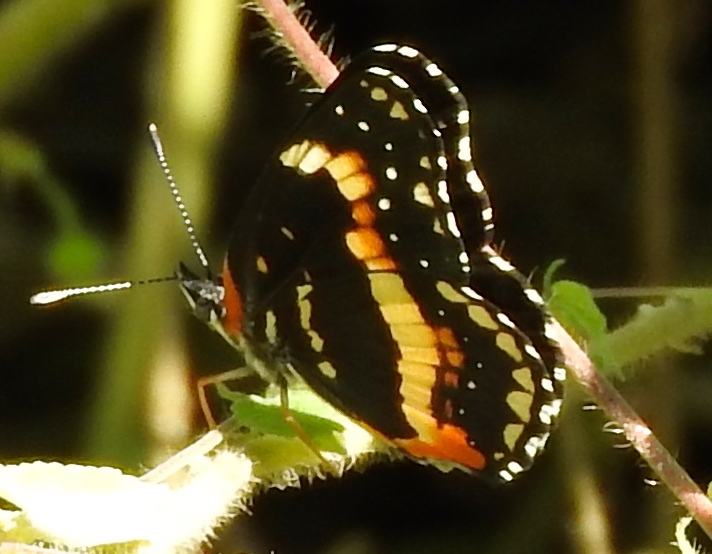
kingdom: Animalia
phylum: Arthropoda
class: Insecta
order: Lepidoptera
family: Nymphalidae
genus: Chlosyne
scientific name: Chlosyne lacinia
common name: Bordered patch
